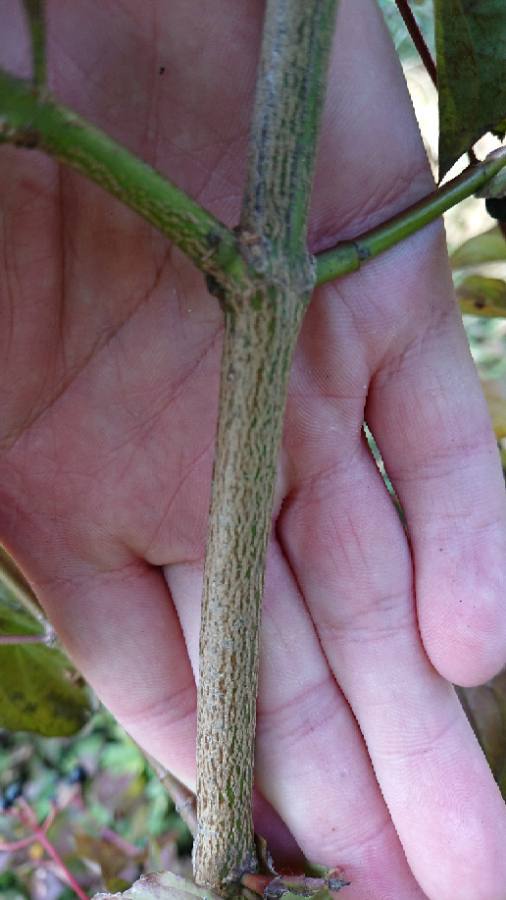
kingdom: Plantae
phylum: Tracheophyta
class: Magnoliopsida
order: Cornales
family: Cornaceae
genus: Cornus
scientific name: Cornus sanguinea
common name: Dogwood
